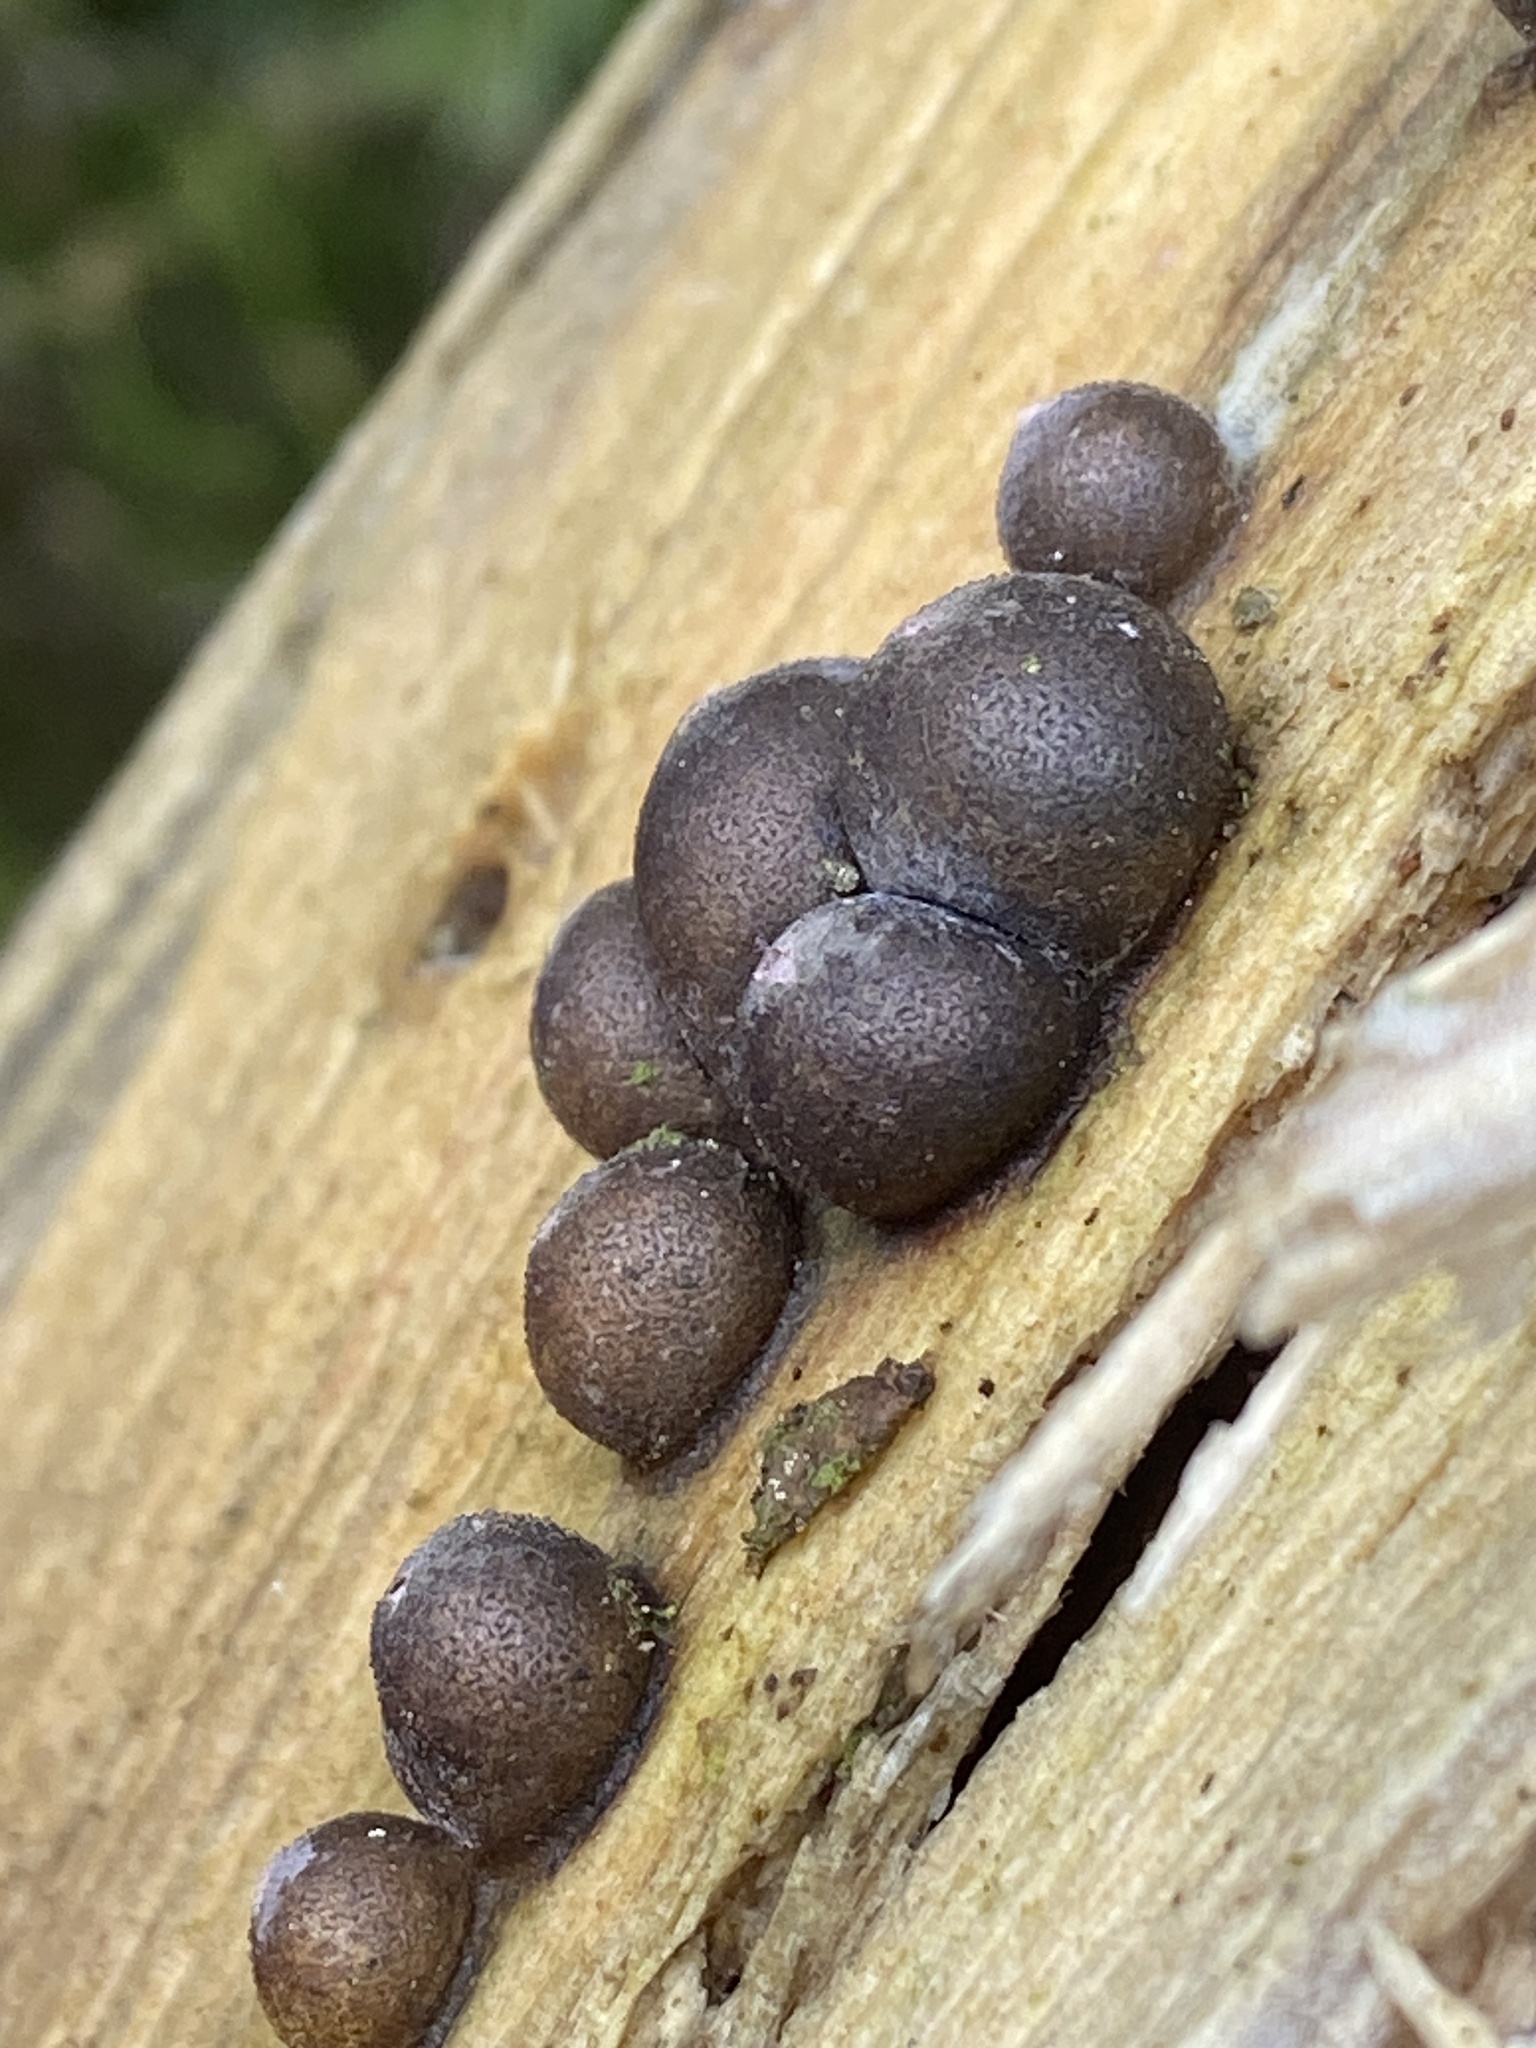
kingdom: Protozoa
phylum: Mycetozoa
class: Myxomycetes
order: Cribrariales
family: Tubiferaceae
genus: Lycogala
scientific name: Lycogala epidendrum
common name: Wolf's milk
